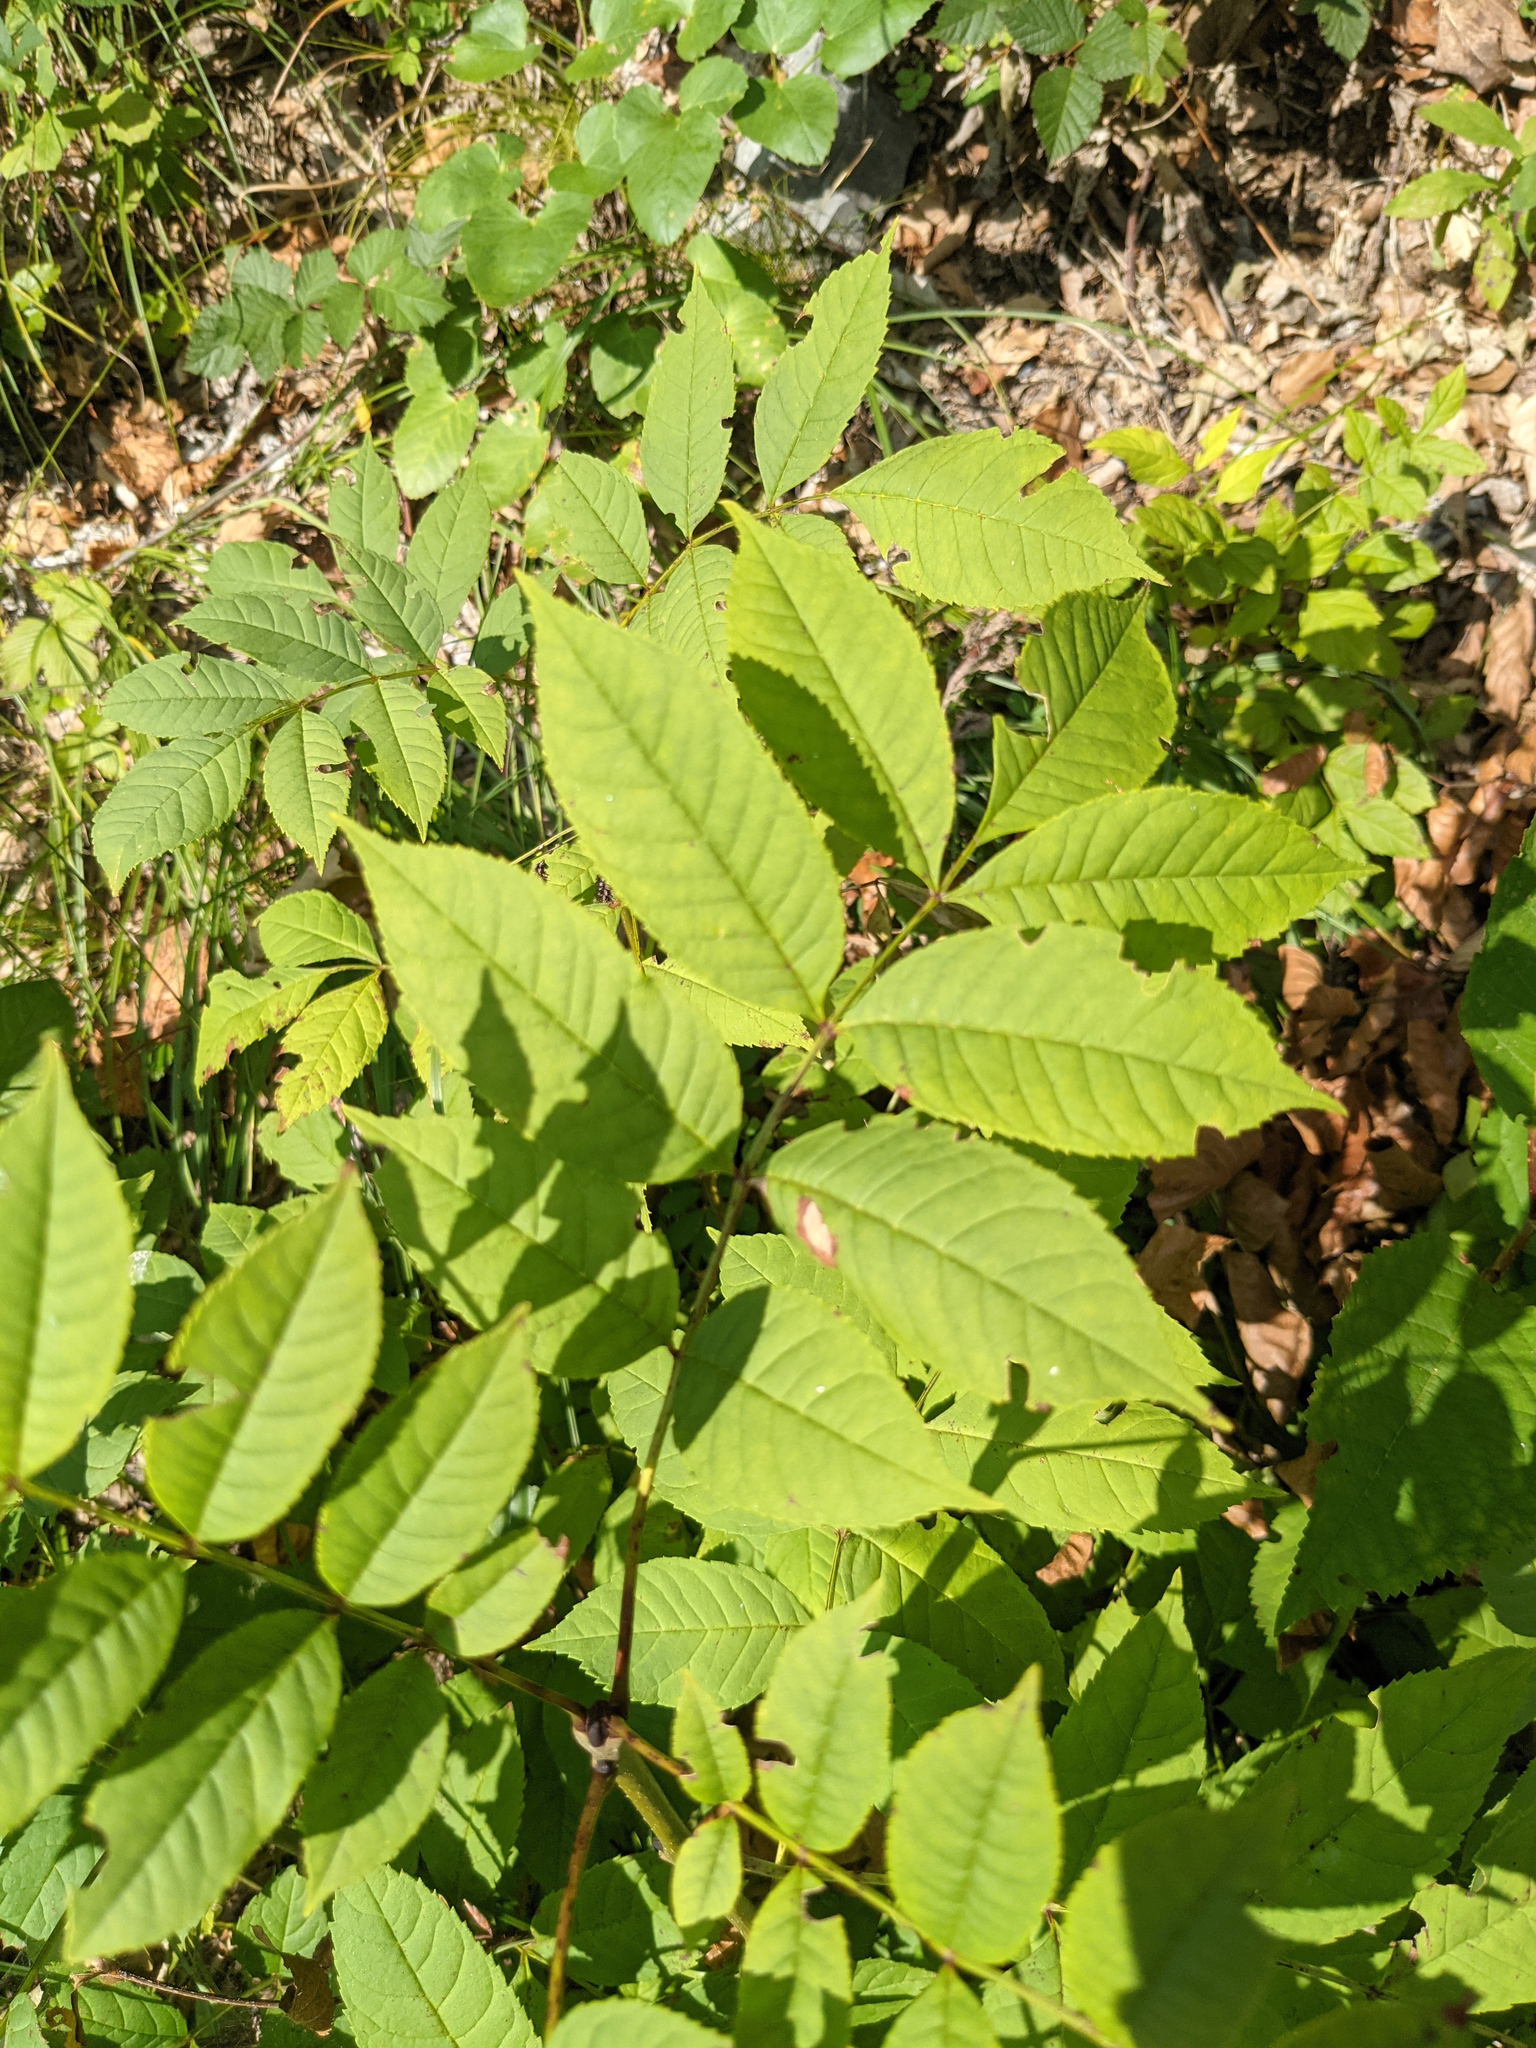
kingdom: Plantae
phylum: Tracheophyta
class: Magnoliopsida
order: Lamiales
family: Oleaceae
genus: Fraxinus
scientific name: Fraxinus excelsior
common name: European ash
